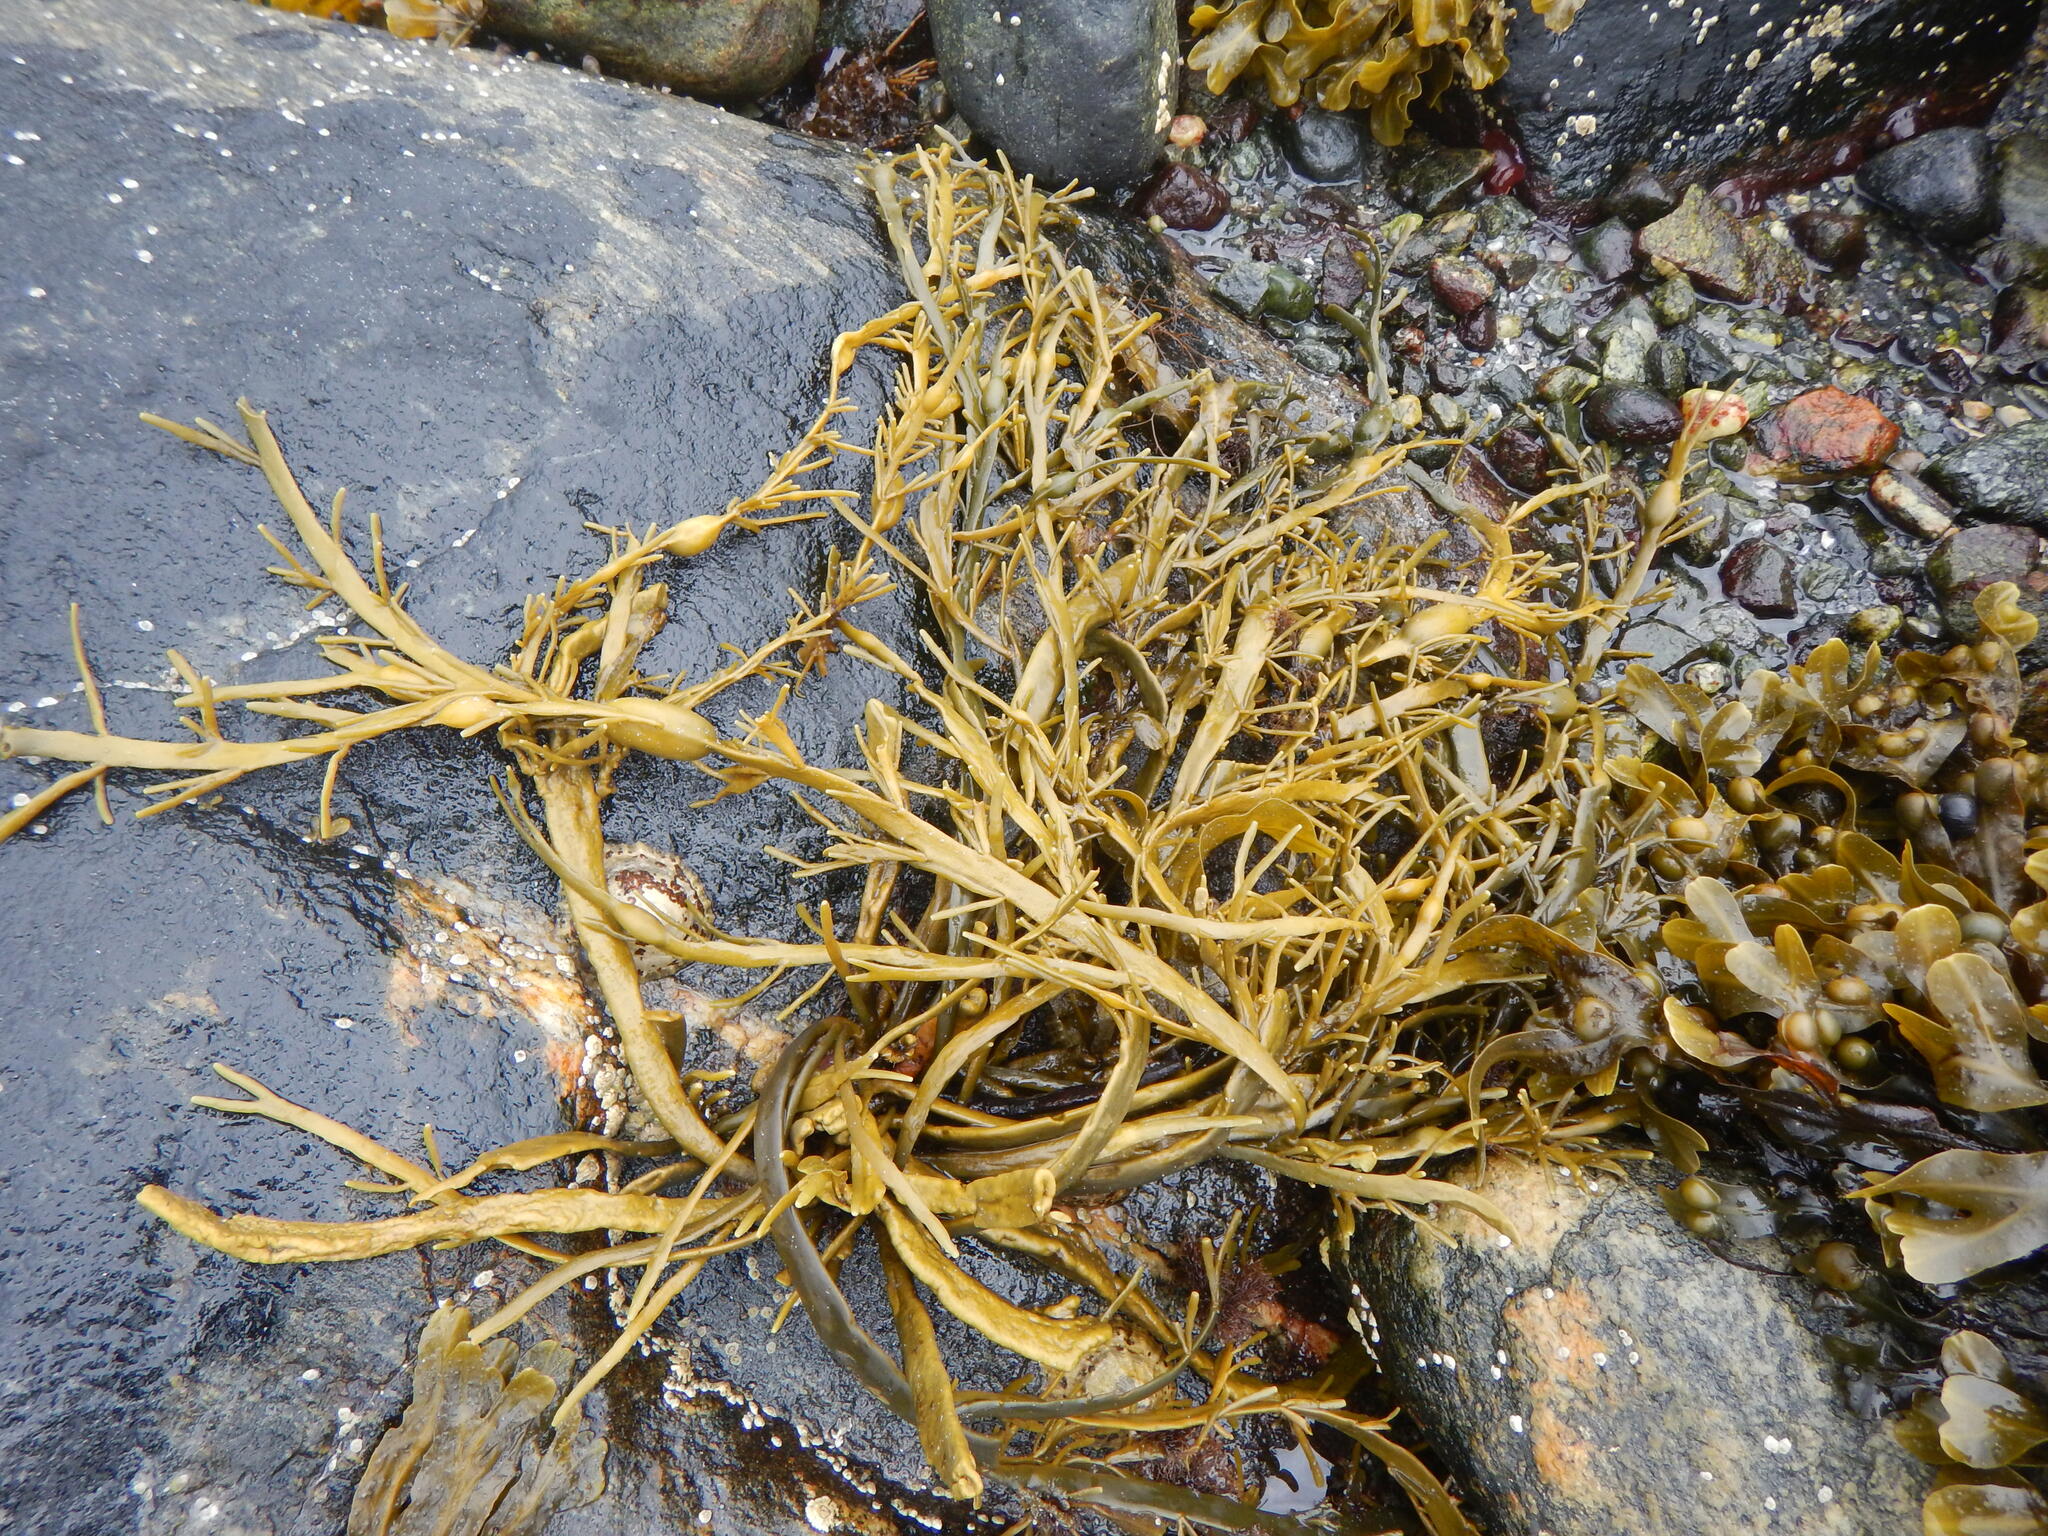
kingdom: Chromista
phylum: Ochrophyta
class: Phaeophyceae
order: Fucales
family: Fucaceae
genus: Ascophyllum
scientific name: Ascophyllum nodosum
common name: Knotted wrack
